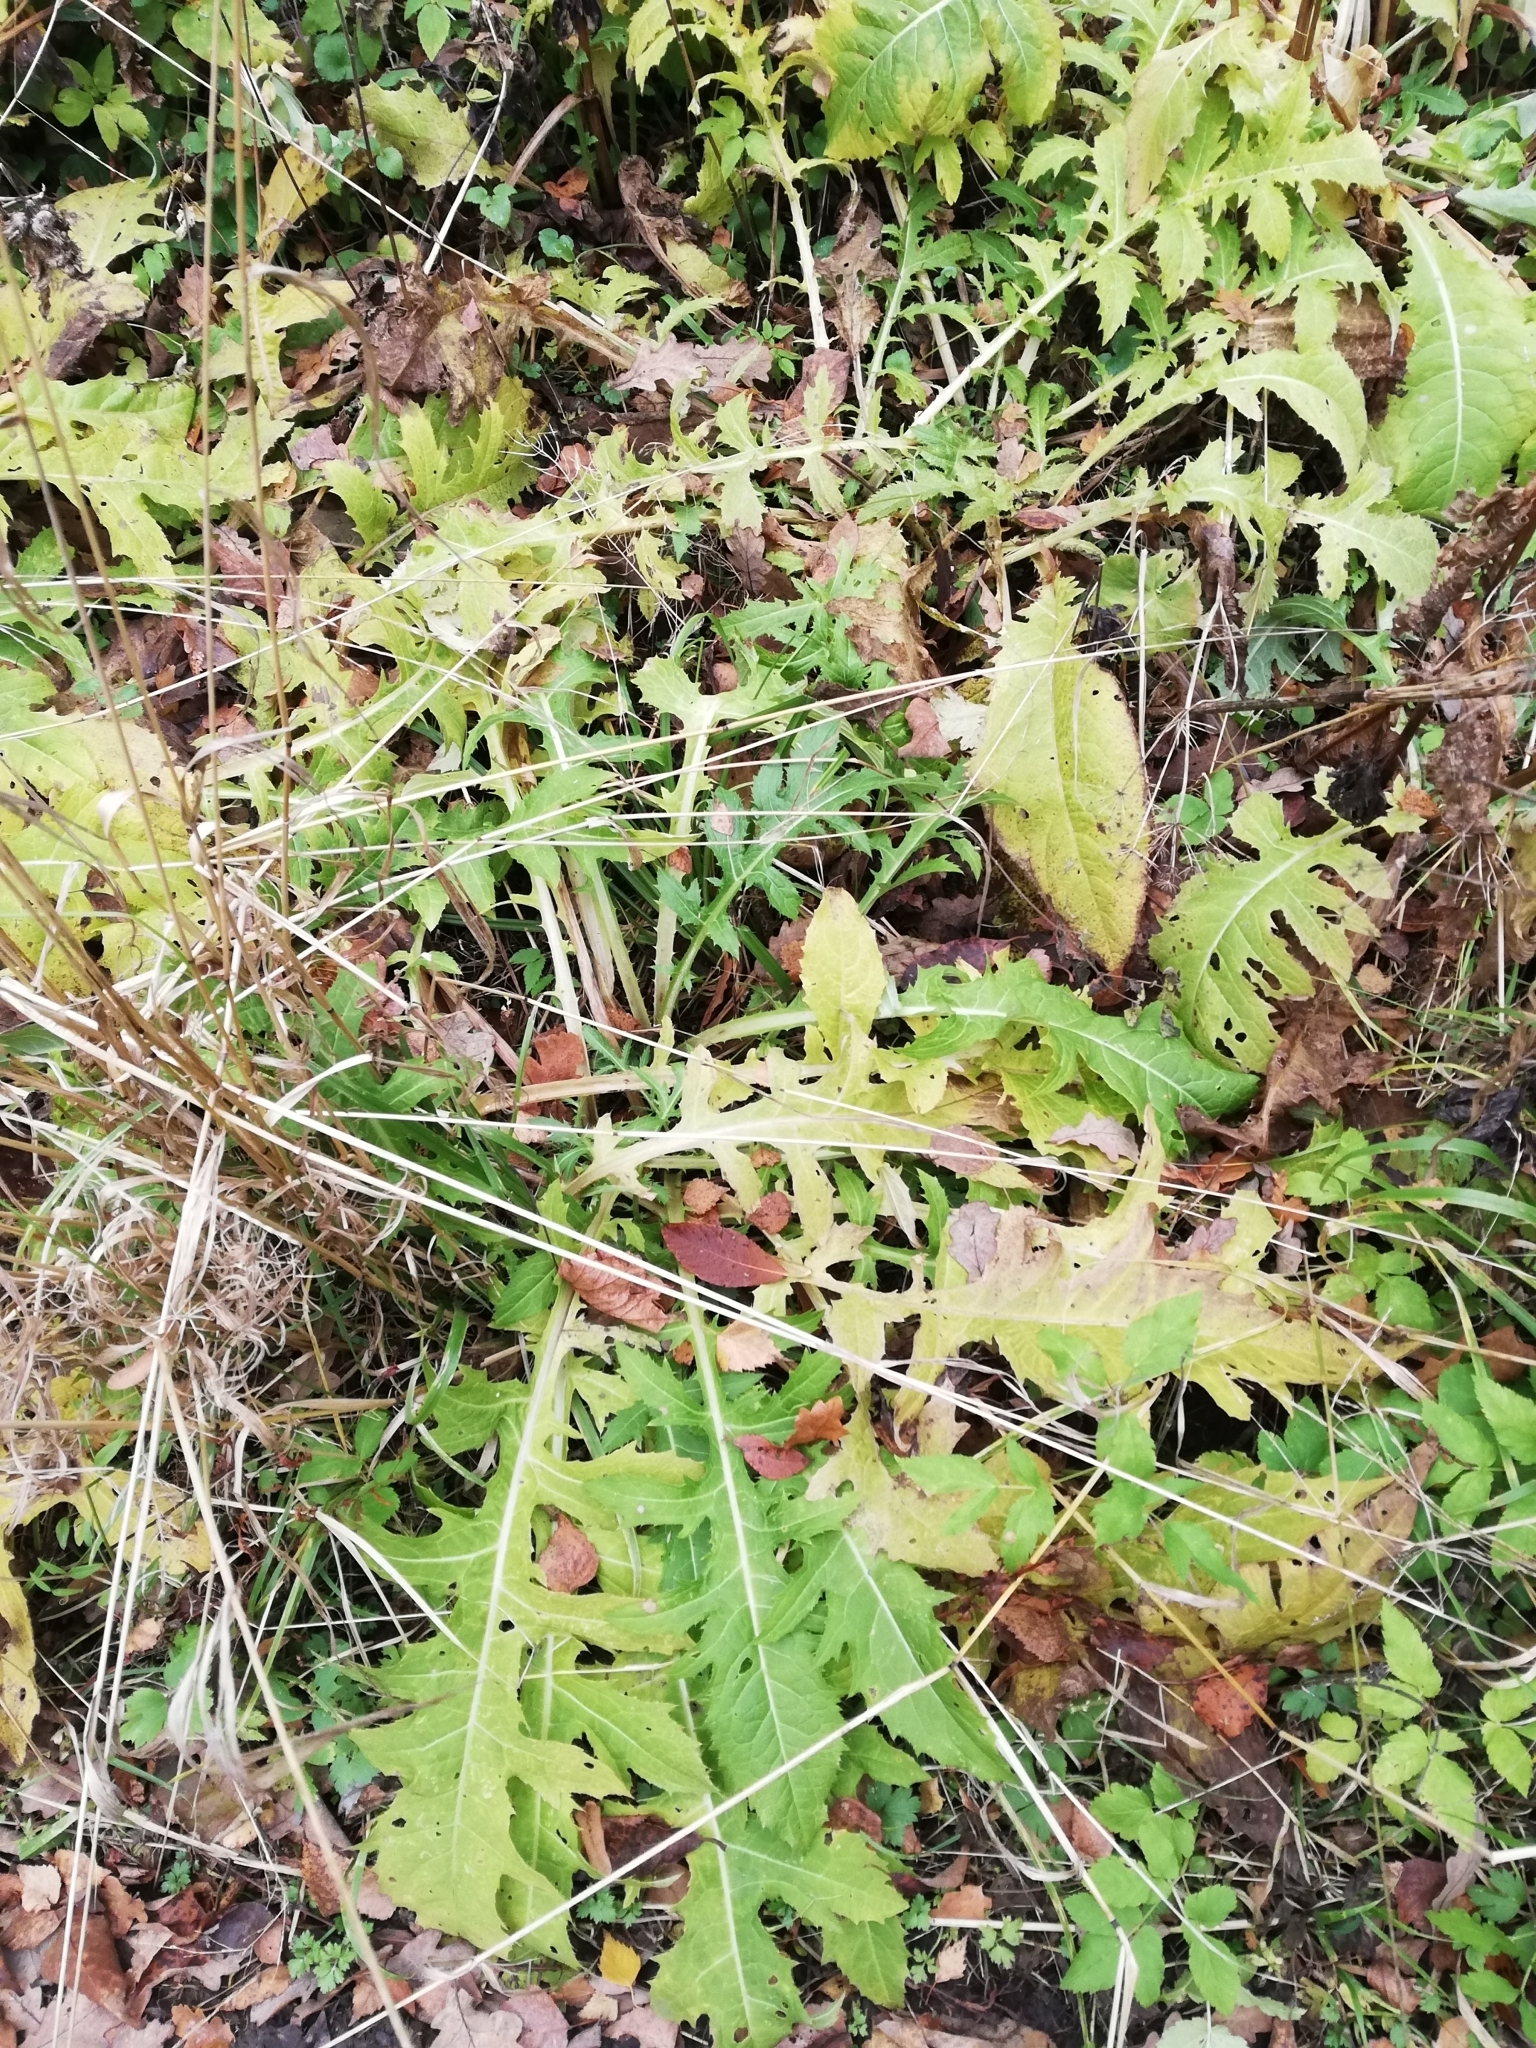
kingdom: Plantae
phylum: Tracheophyta
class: Magnoliopsida
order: Asterales
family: Asteraceae
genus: Cirsium
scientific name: Cirsium oleraceum
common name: Cabbage thistle
